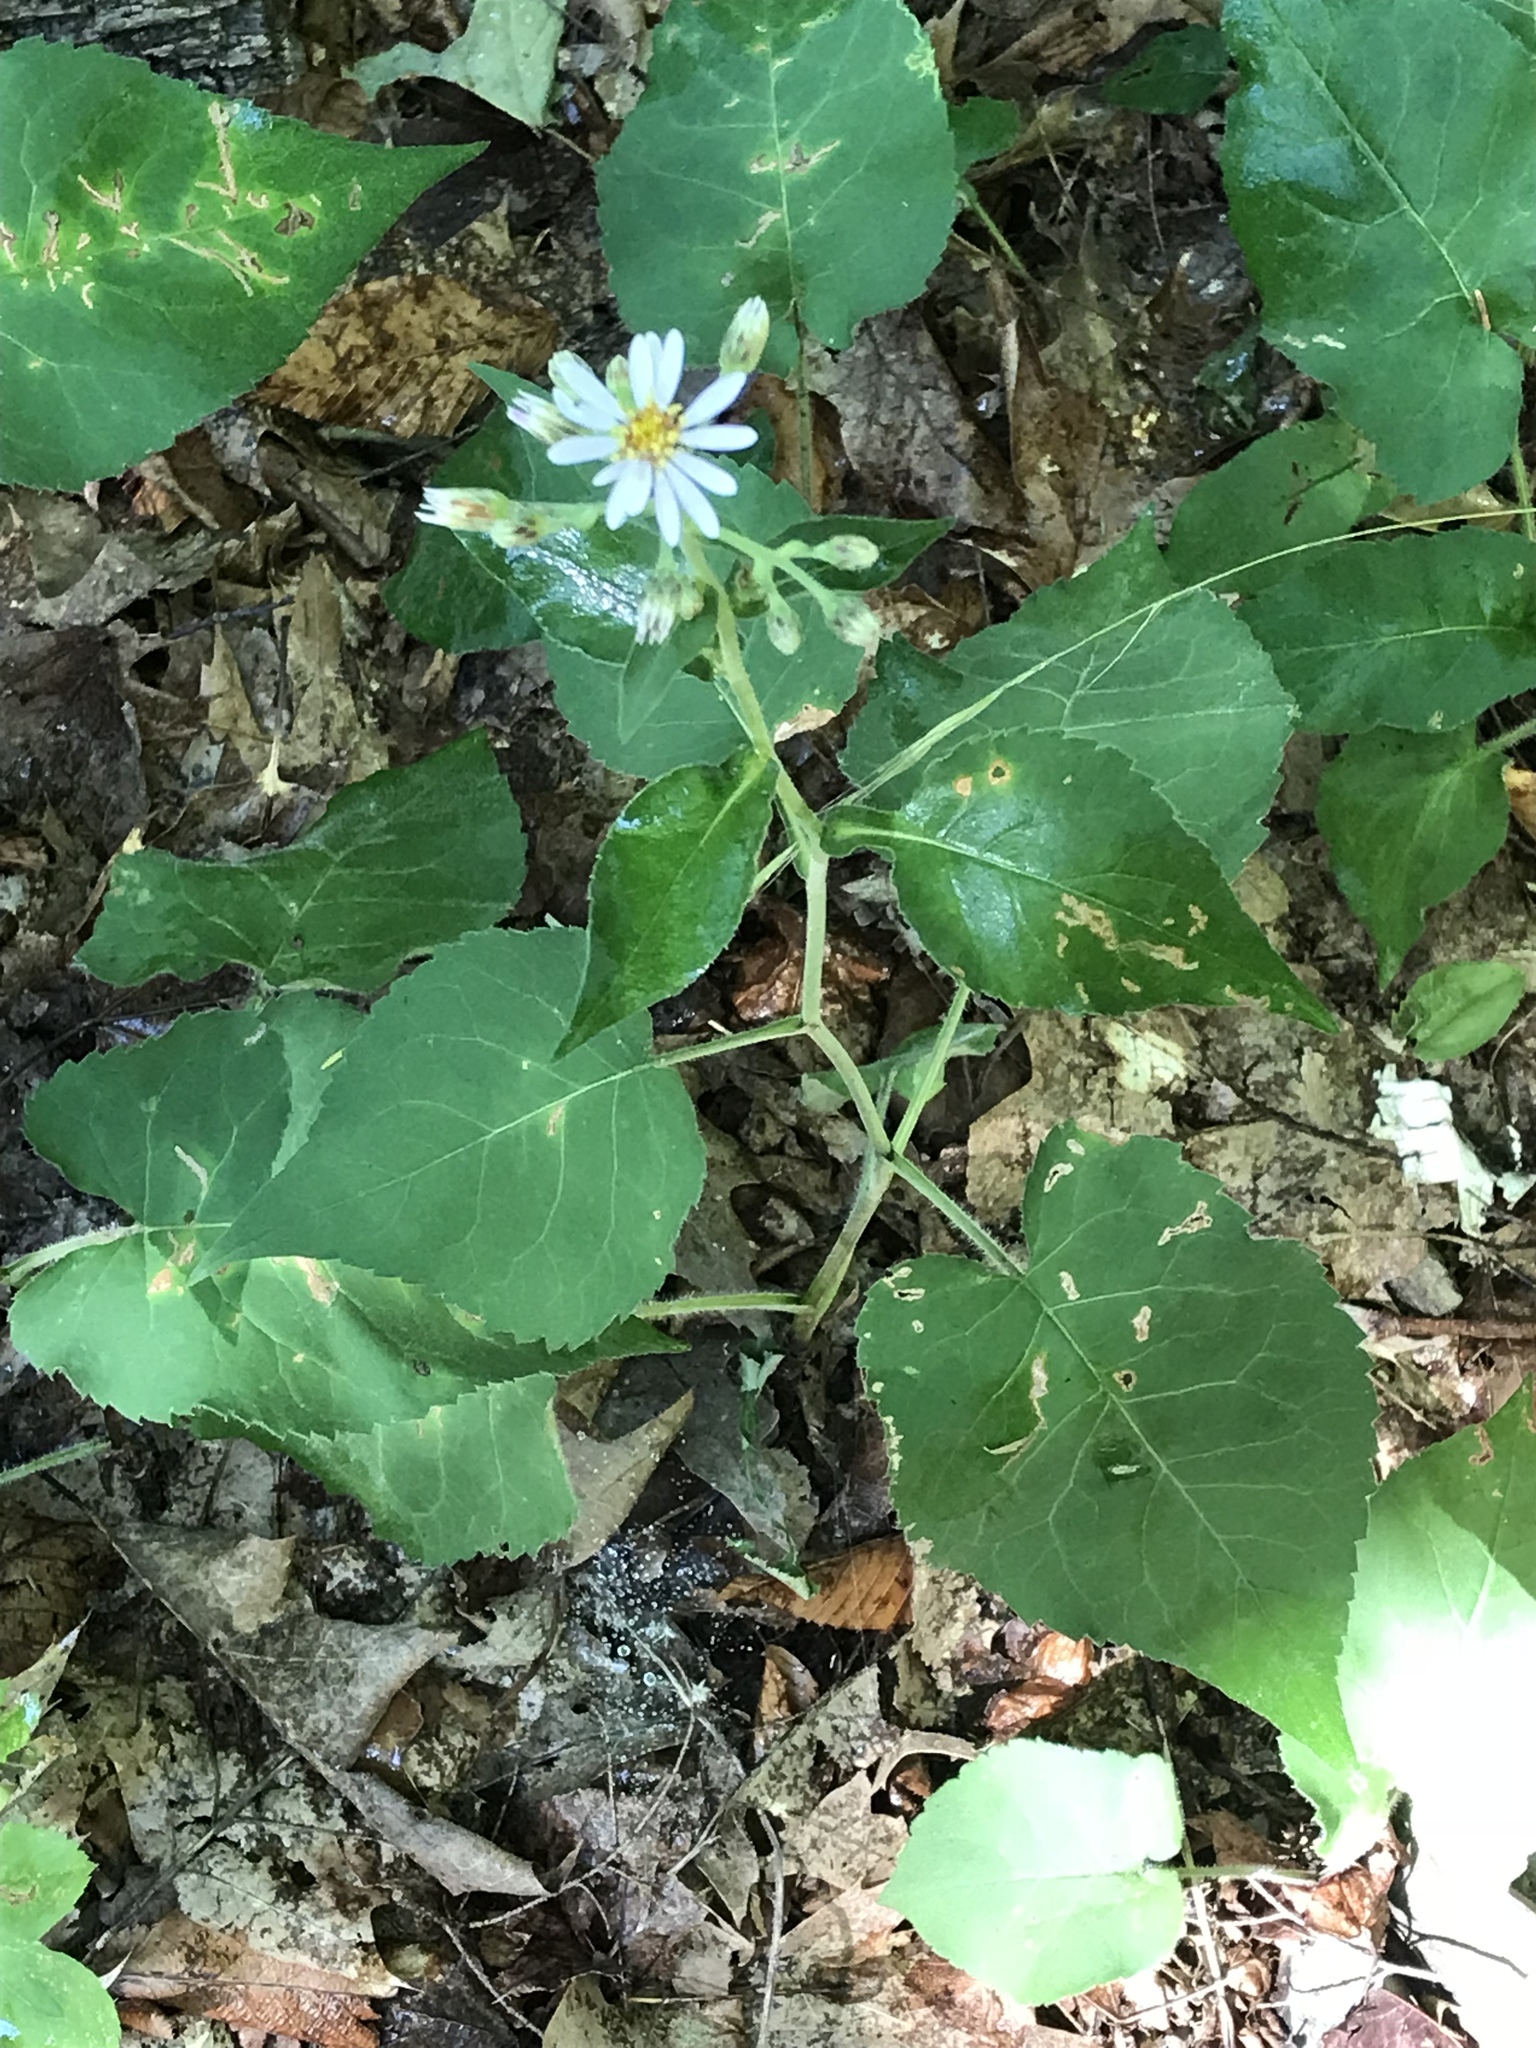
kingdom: Plantae
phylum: Tracheophyta
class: Magnoliopsida
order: Asterales
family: Asteraceae
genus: Eurybia
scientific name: Eurybia macrophylla
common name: Big-leaved aster
